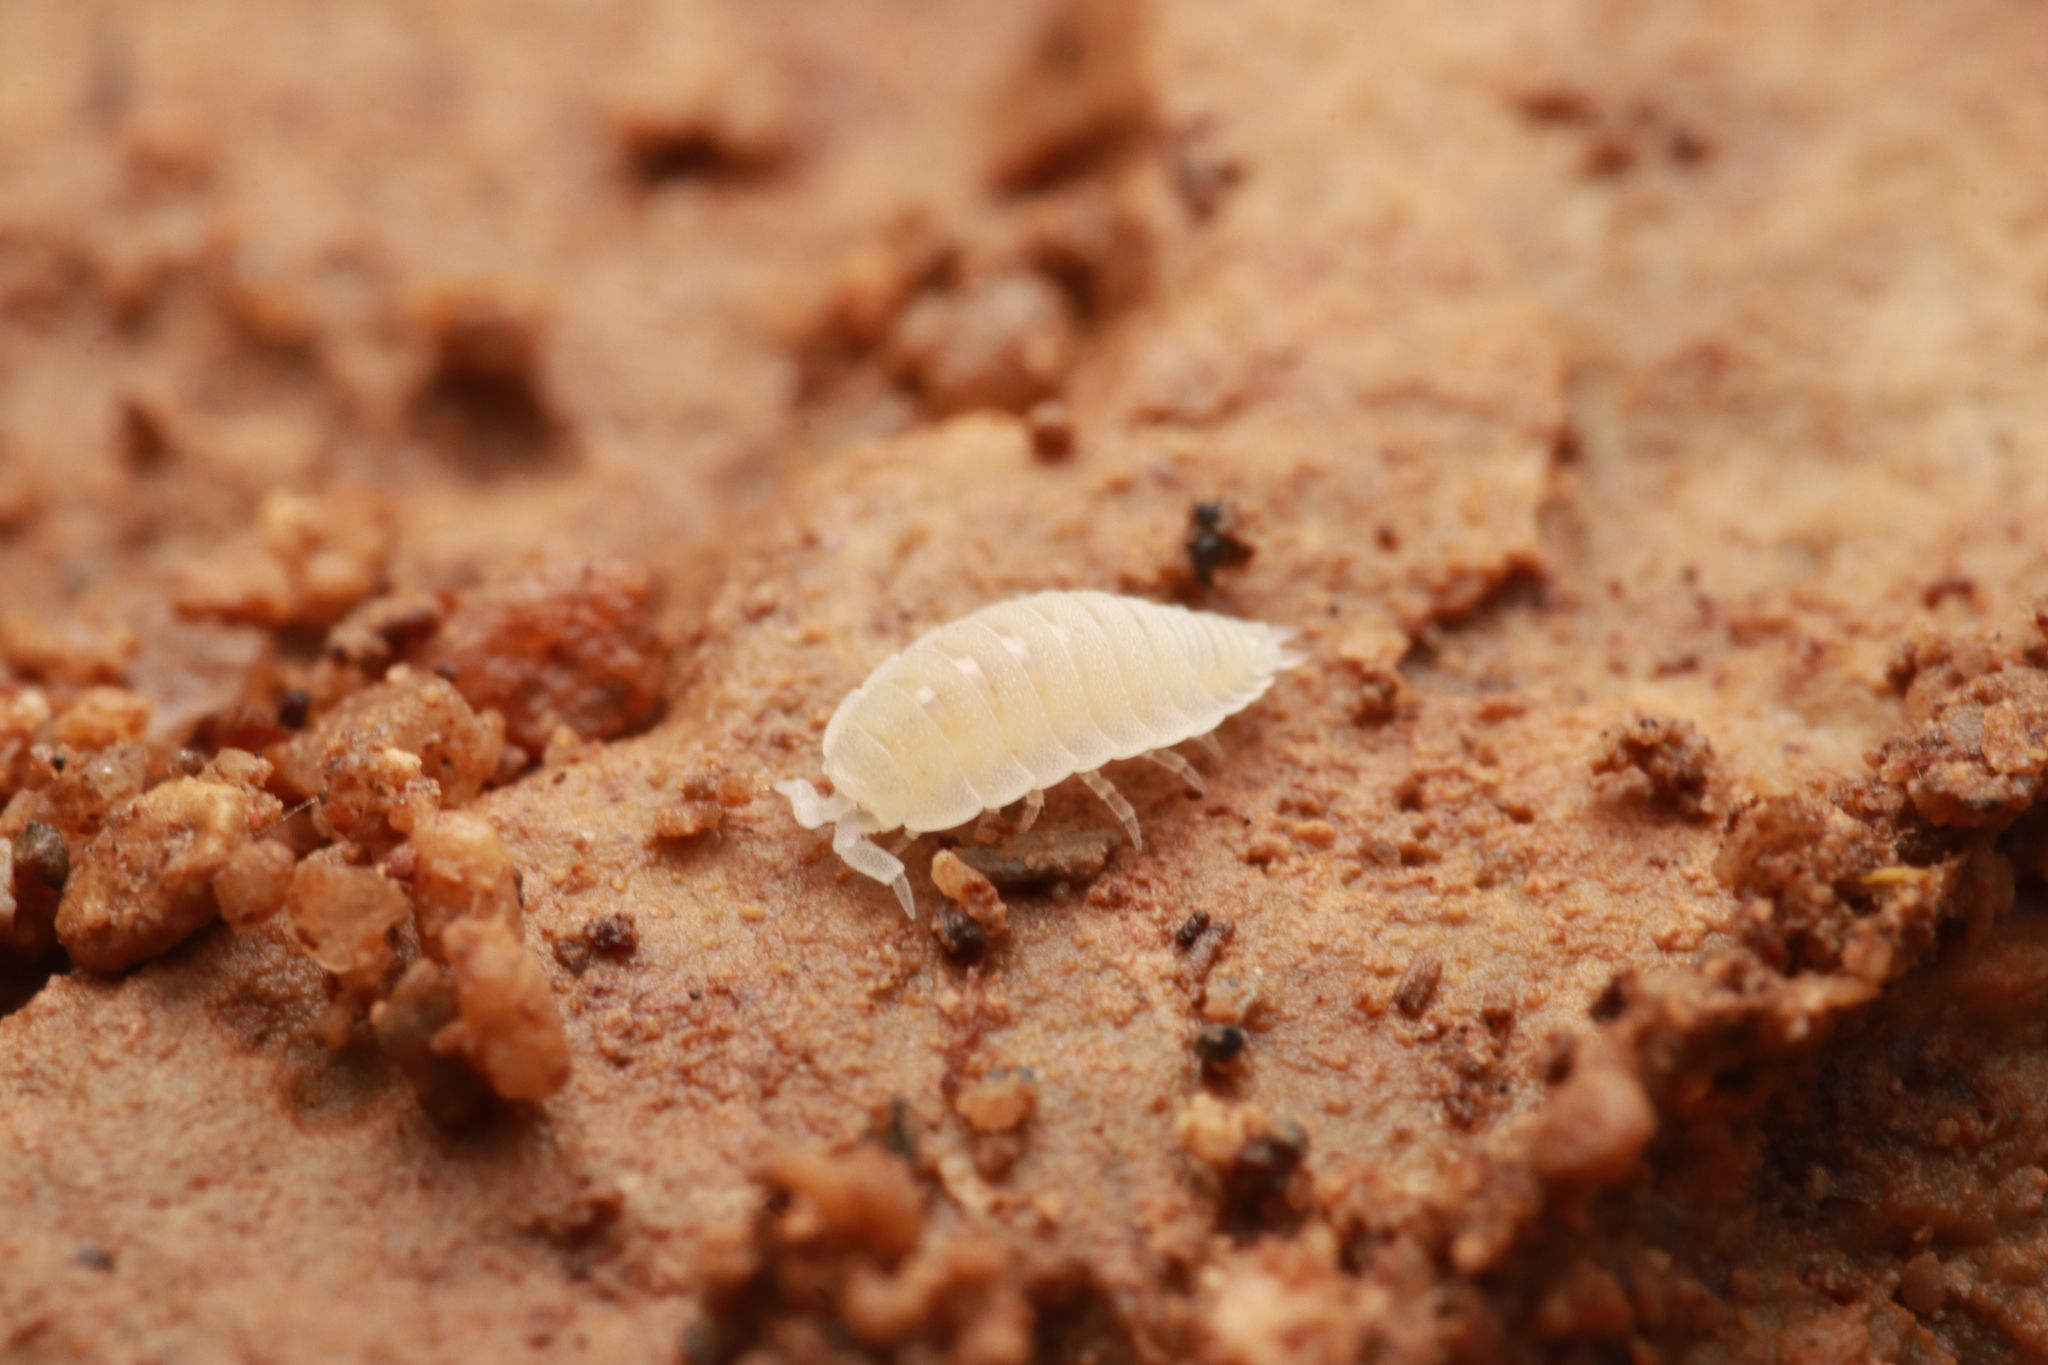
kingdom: Animalia
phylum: Arthropoda
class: Malacostraca
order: Isopoda
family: Platyarthridae
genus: Platyarthrus
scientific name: Platyarthrus hoffmannseggii
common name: Ant woodlouse
